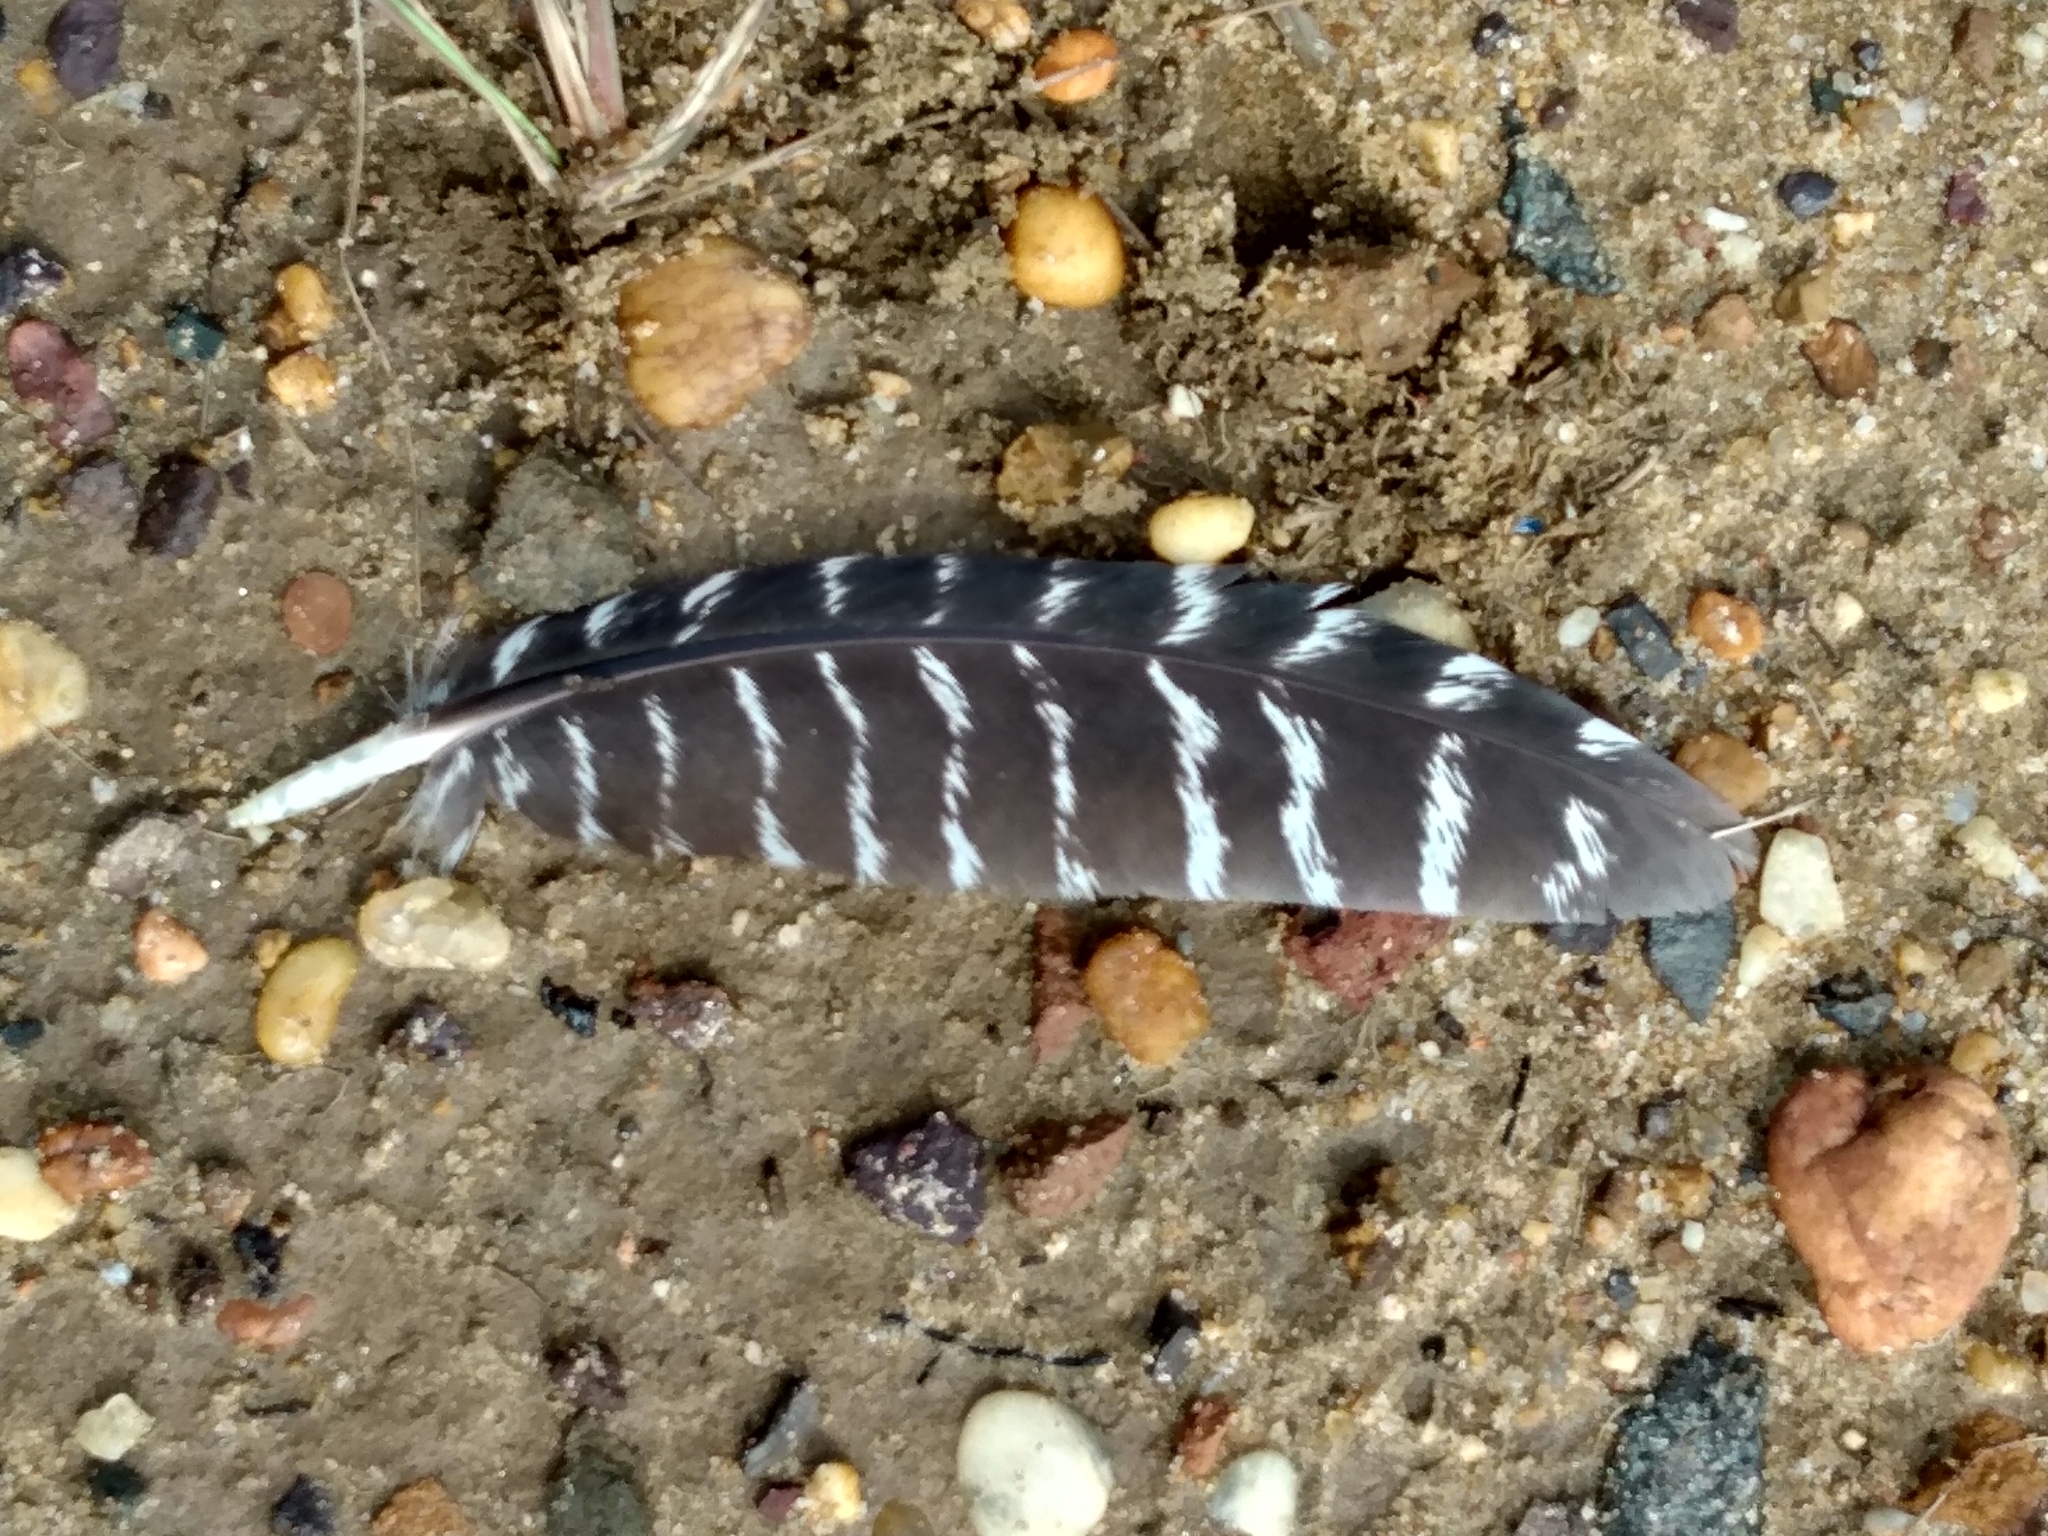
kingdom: Animalia
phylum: Chordata
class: Aves
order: Galliformes
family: Phasianidae
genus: Meleagris
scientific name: Meleagris gallopavo
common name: Wild turkey
